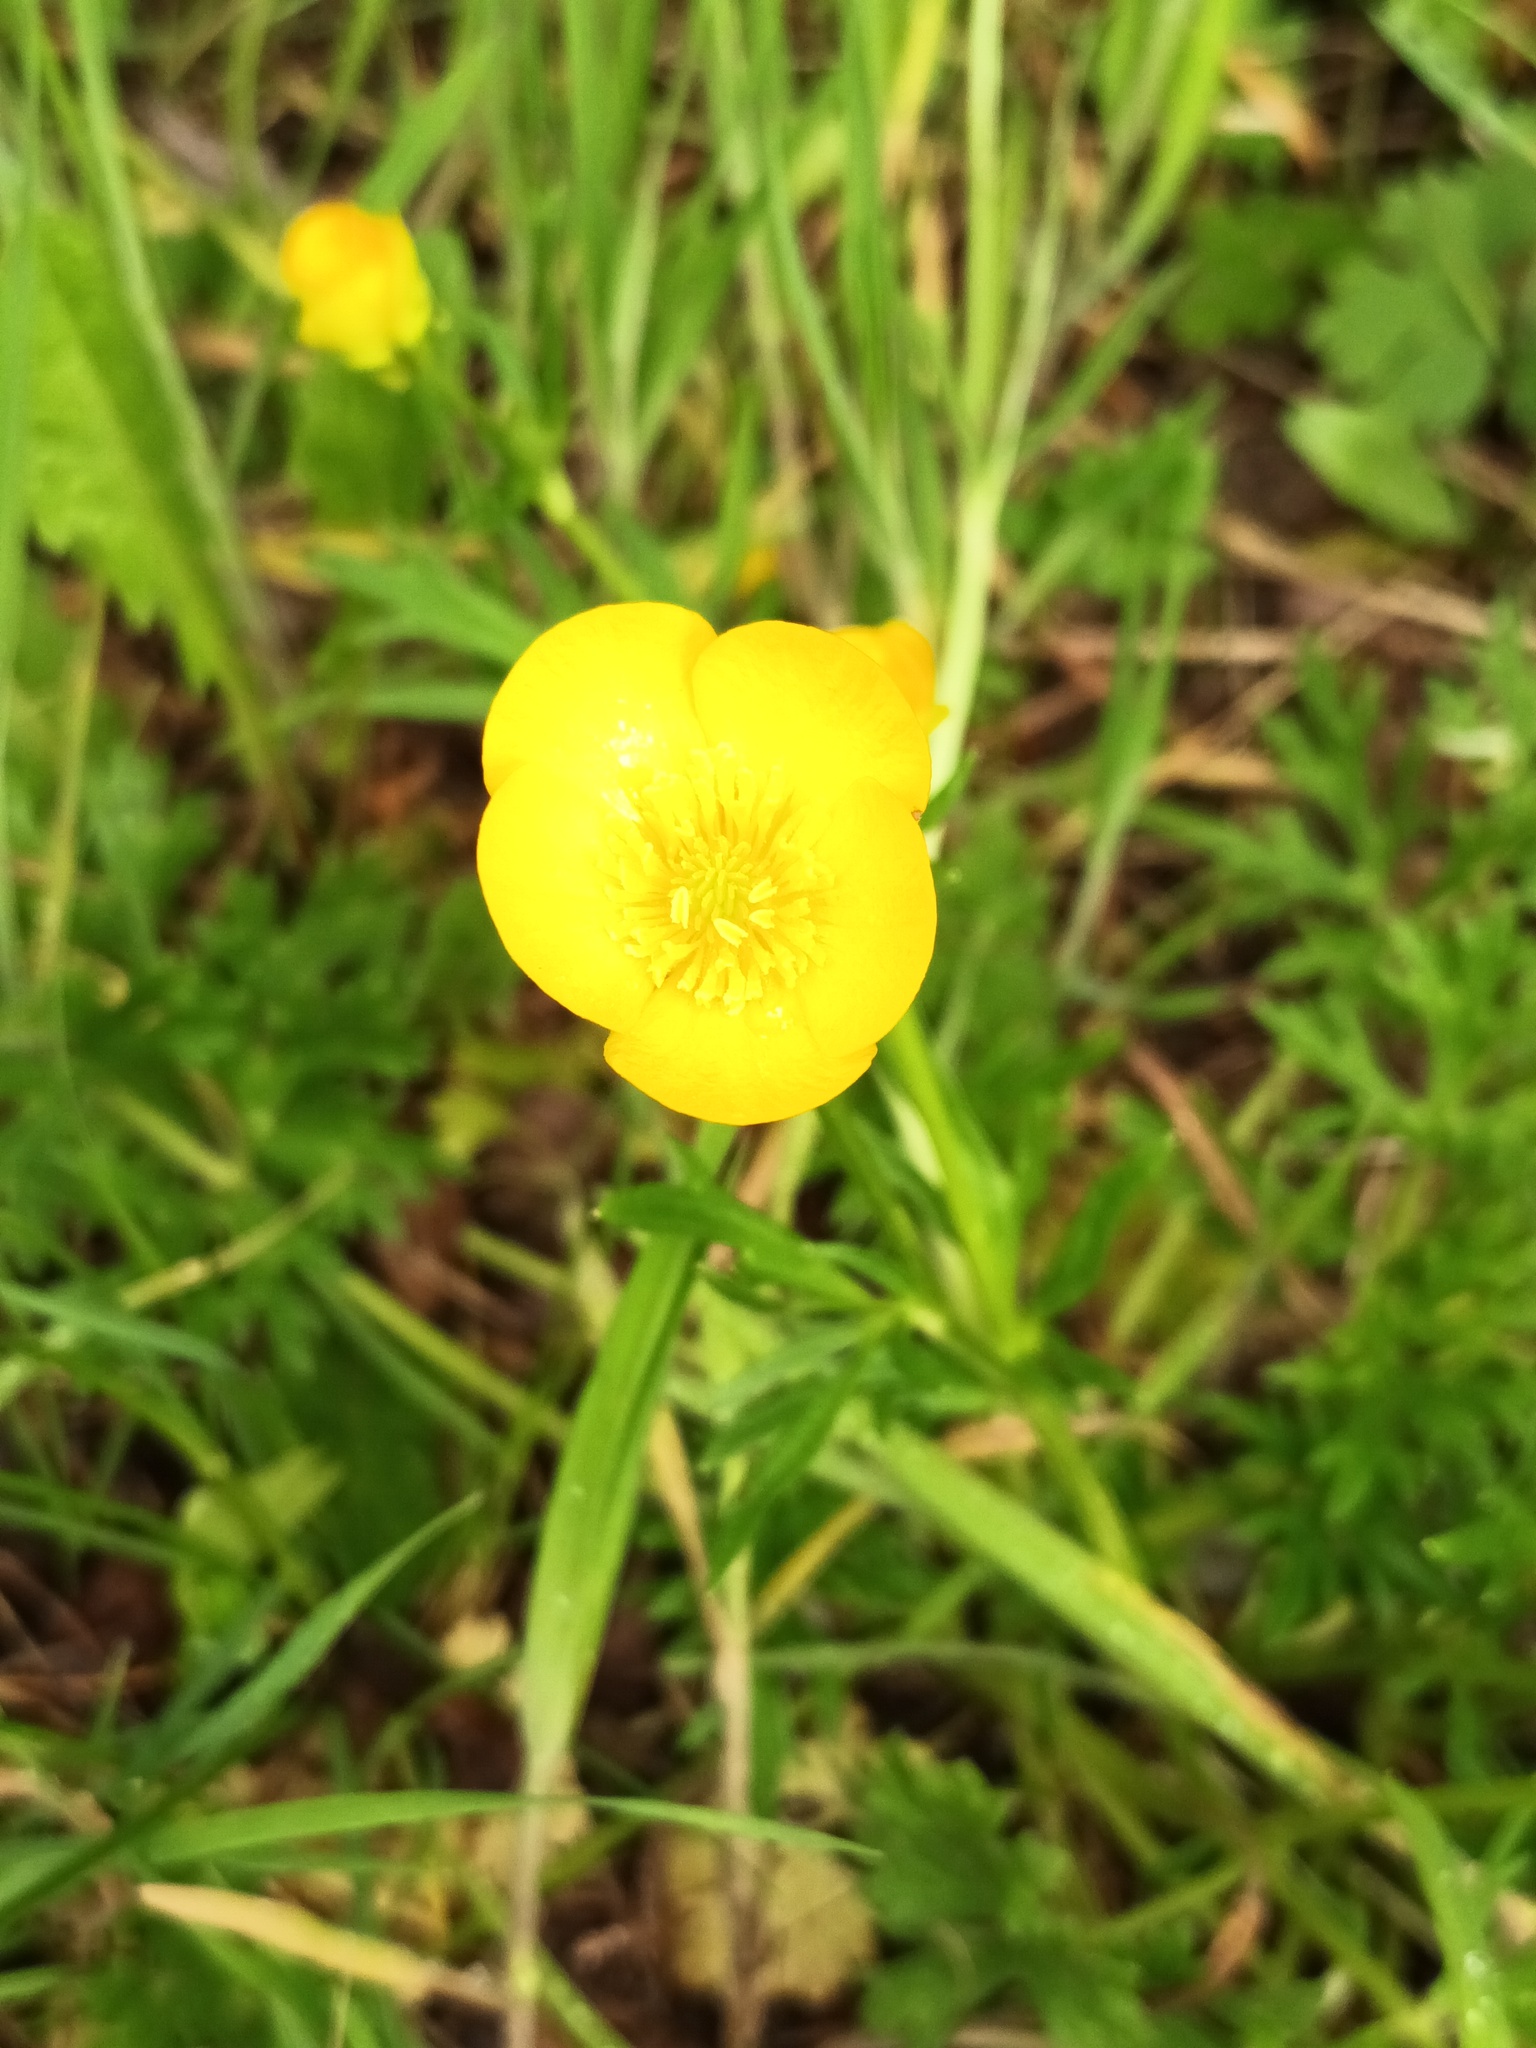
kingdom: Plantae
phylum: Tracheophyta
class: Magnoliopsida
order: Ranunculales
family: Ranunculaceae
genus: Ranunculus
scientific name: Ranunculus bulbosus
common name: Bulbous buttercup
